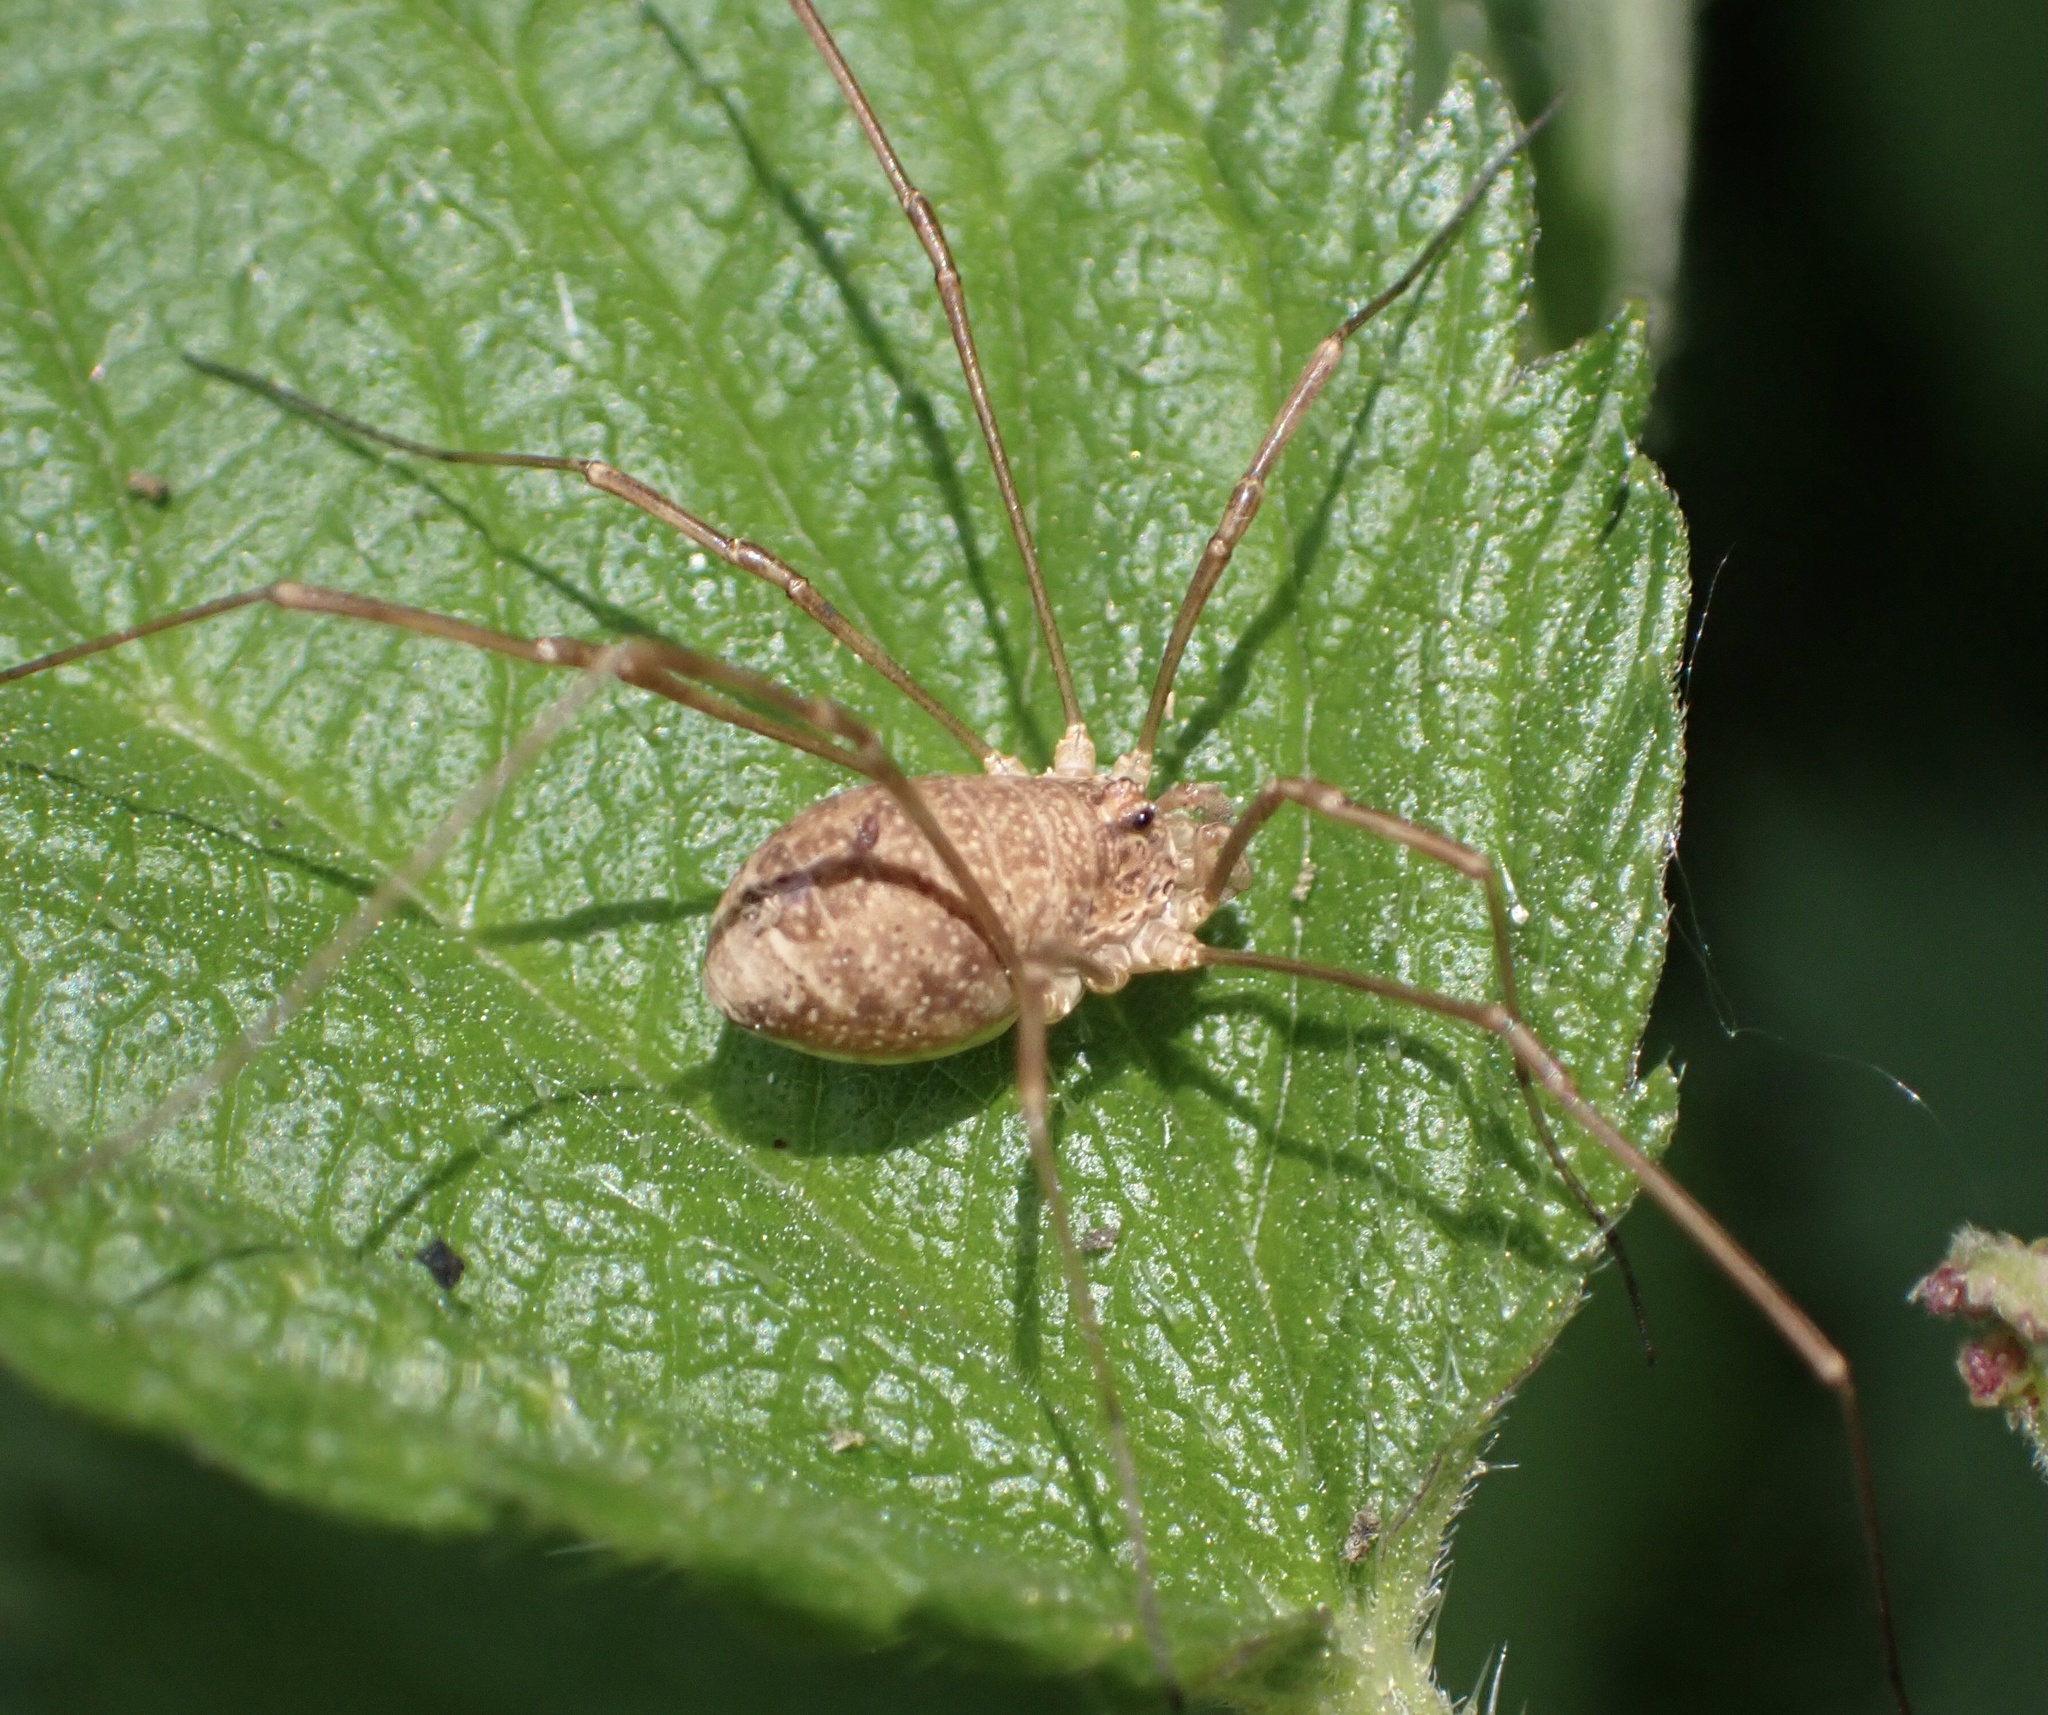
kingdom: Animalia
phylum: Arthropoda
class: Arachnida
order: Opiliones
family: Phalangiidae
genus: Rilaena
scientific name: Rilaena triangularis
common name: Spring harvestman
